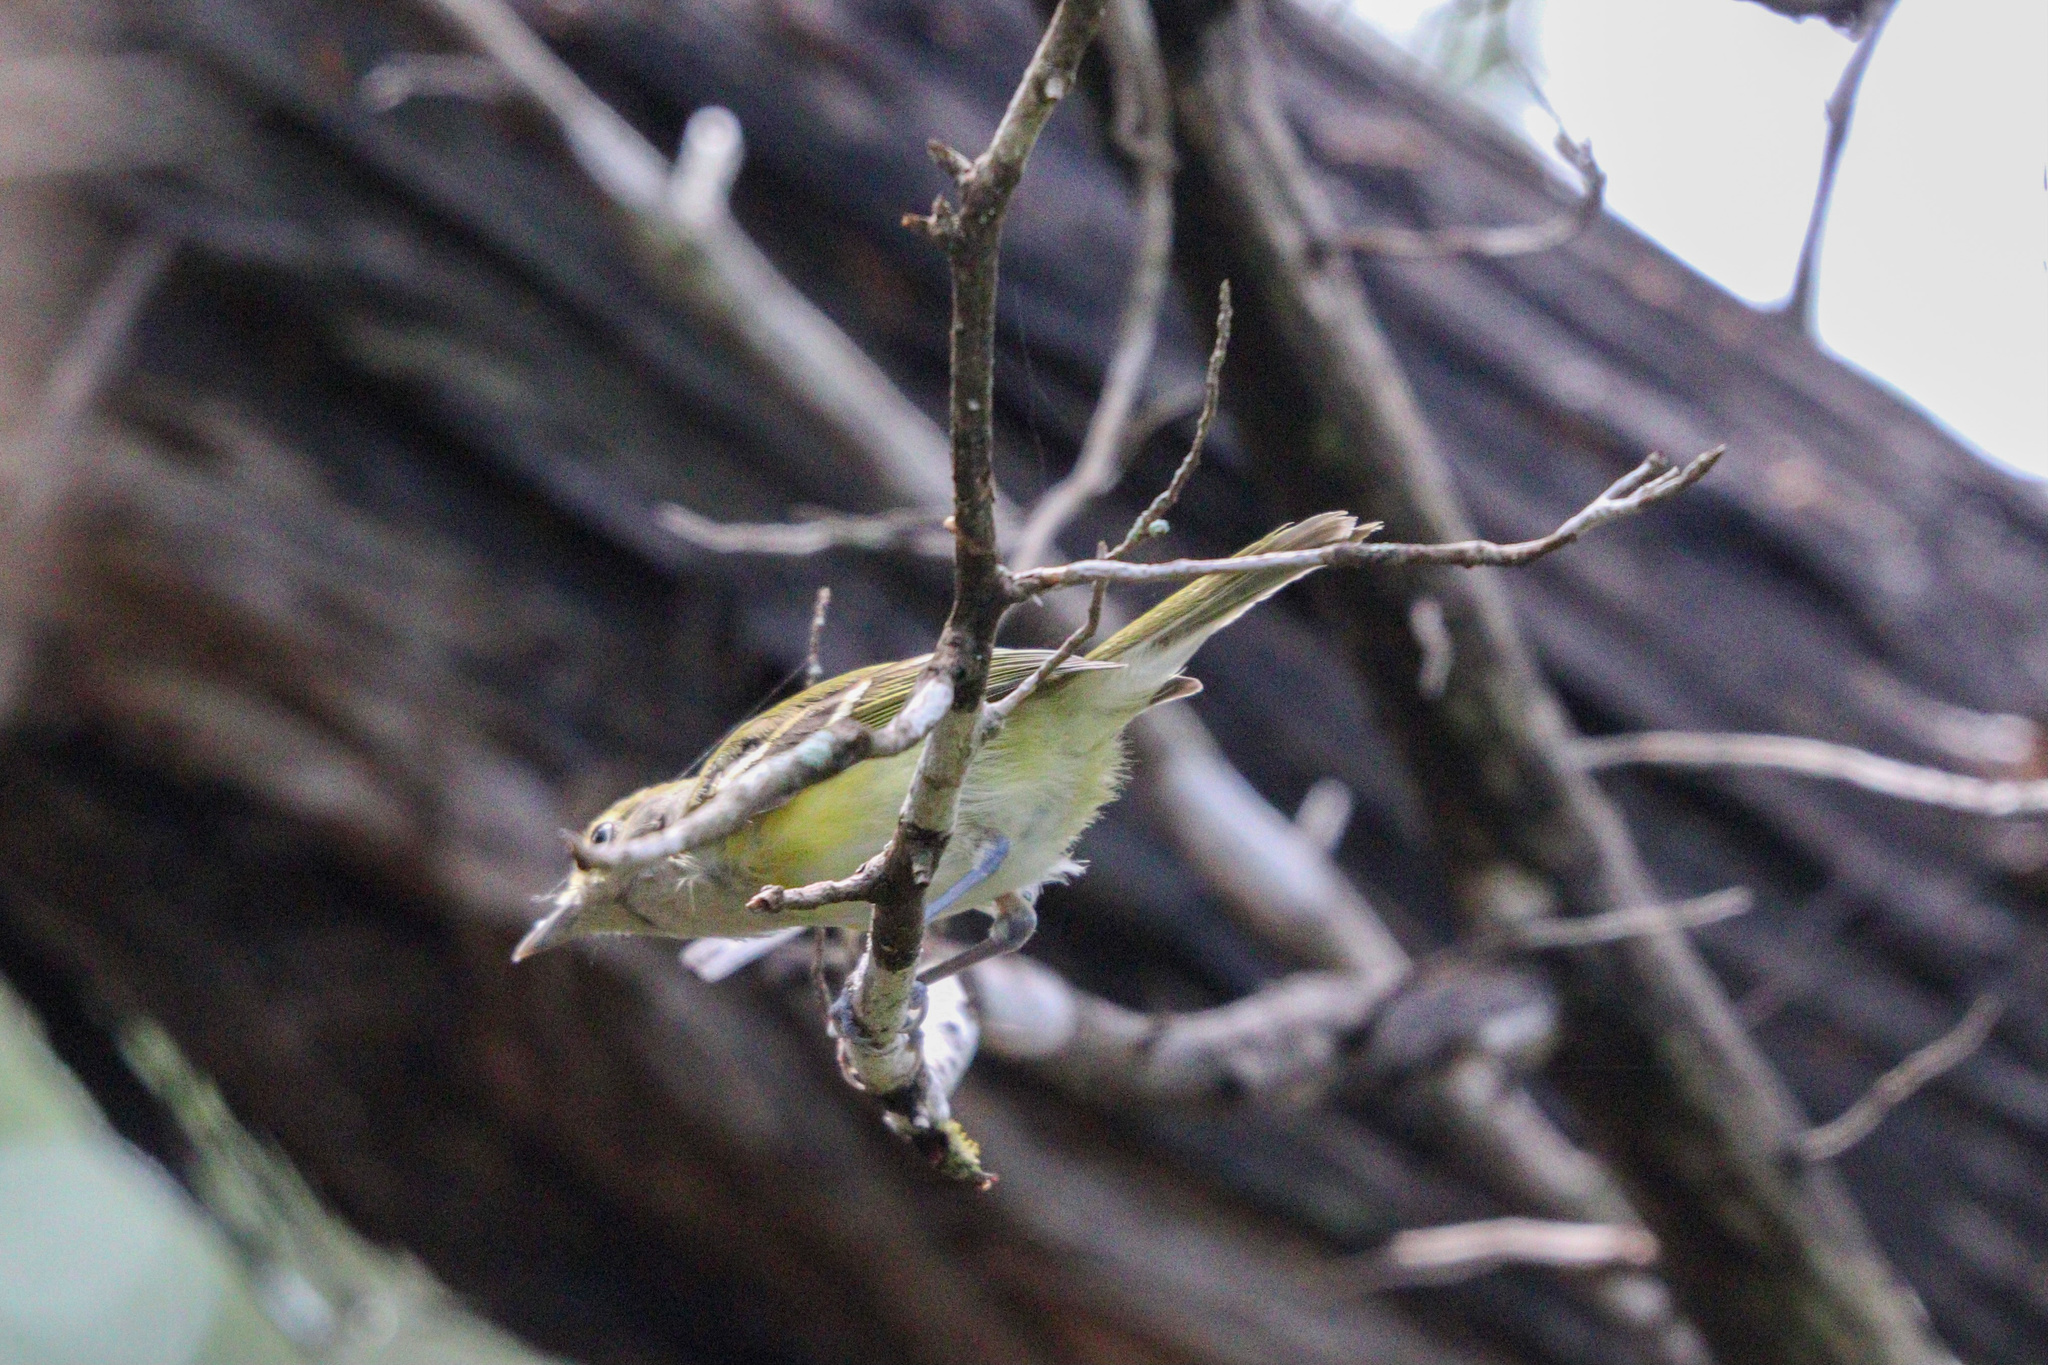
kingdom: Animalia
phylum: Chordata
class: Aves
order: Passeriformes
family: Vireonidae
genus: Vireo
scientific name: Vireo griseus
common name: White-eyed vireo
